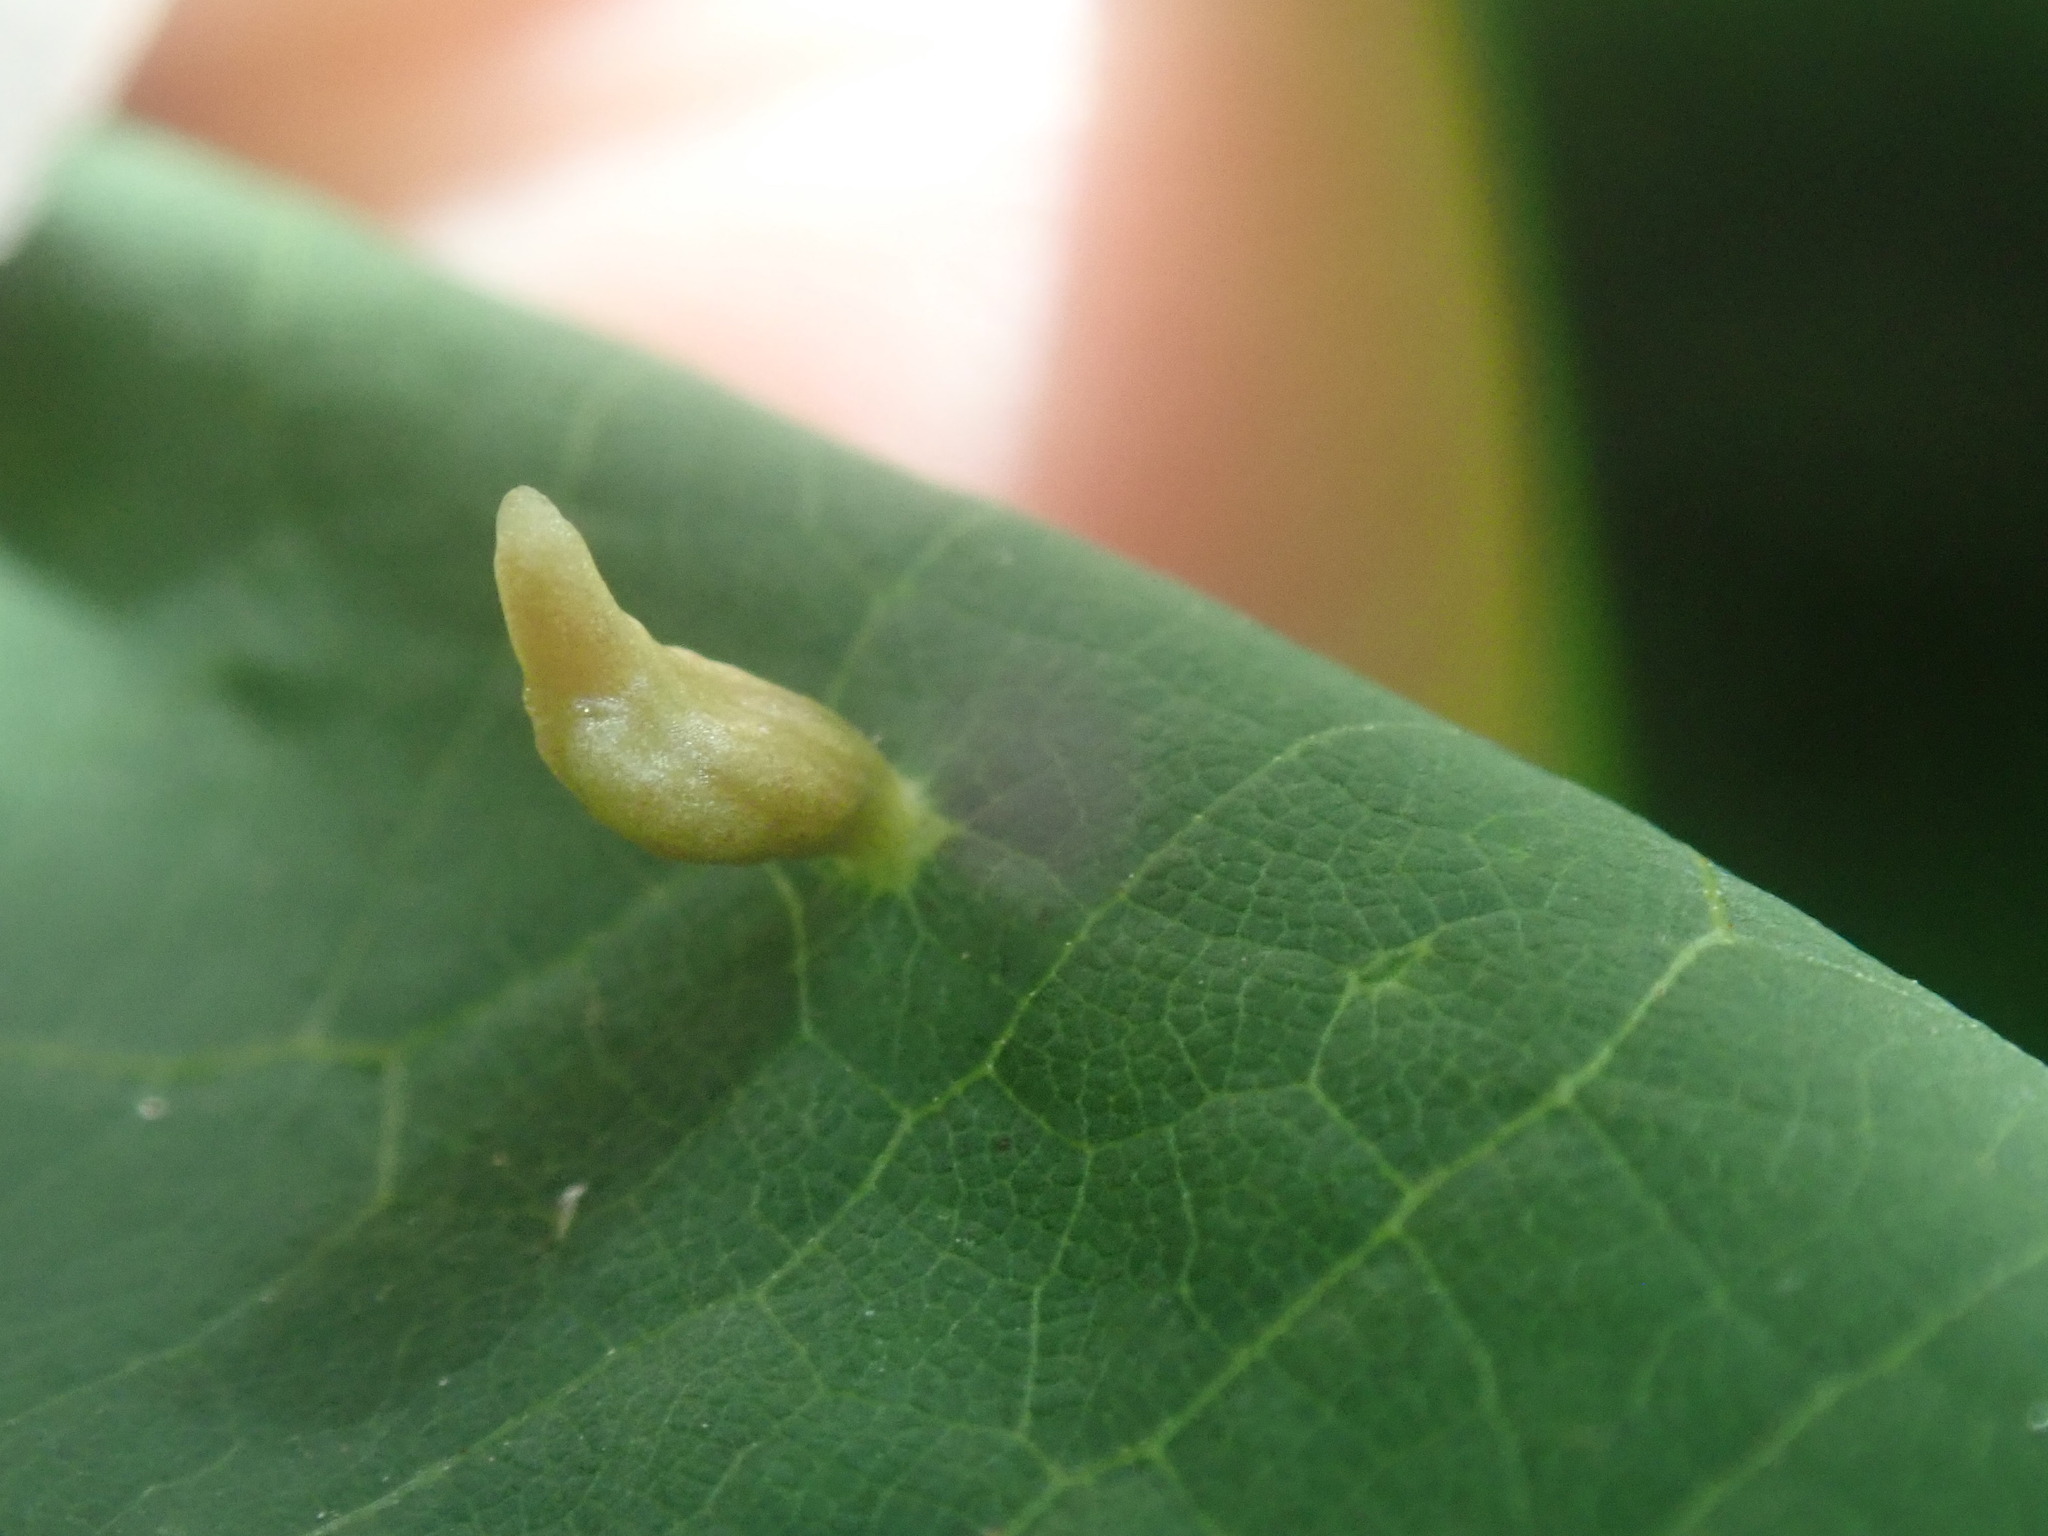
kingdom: Animalia
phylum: Arthropoda
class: Arachnida
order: Trombidiformes
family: Eriophyidae
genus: Eriophyes
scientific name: Eriophyes tiliae
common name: Red nail gall mite
